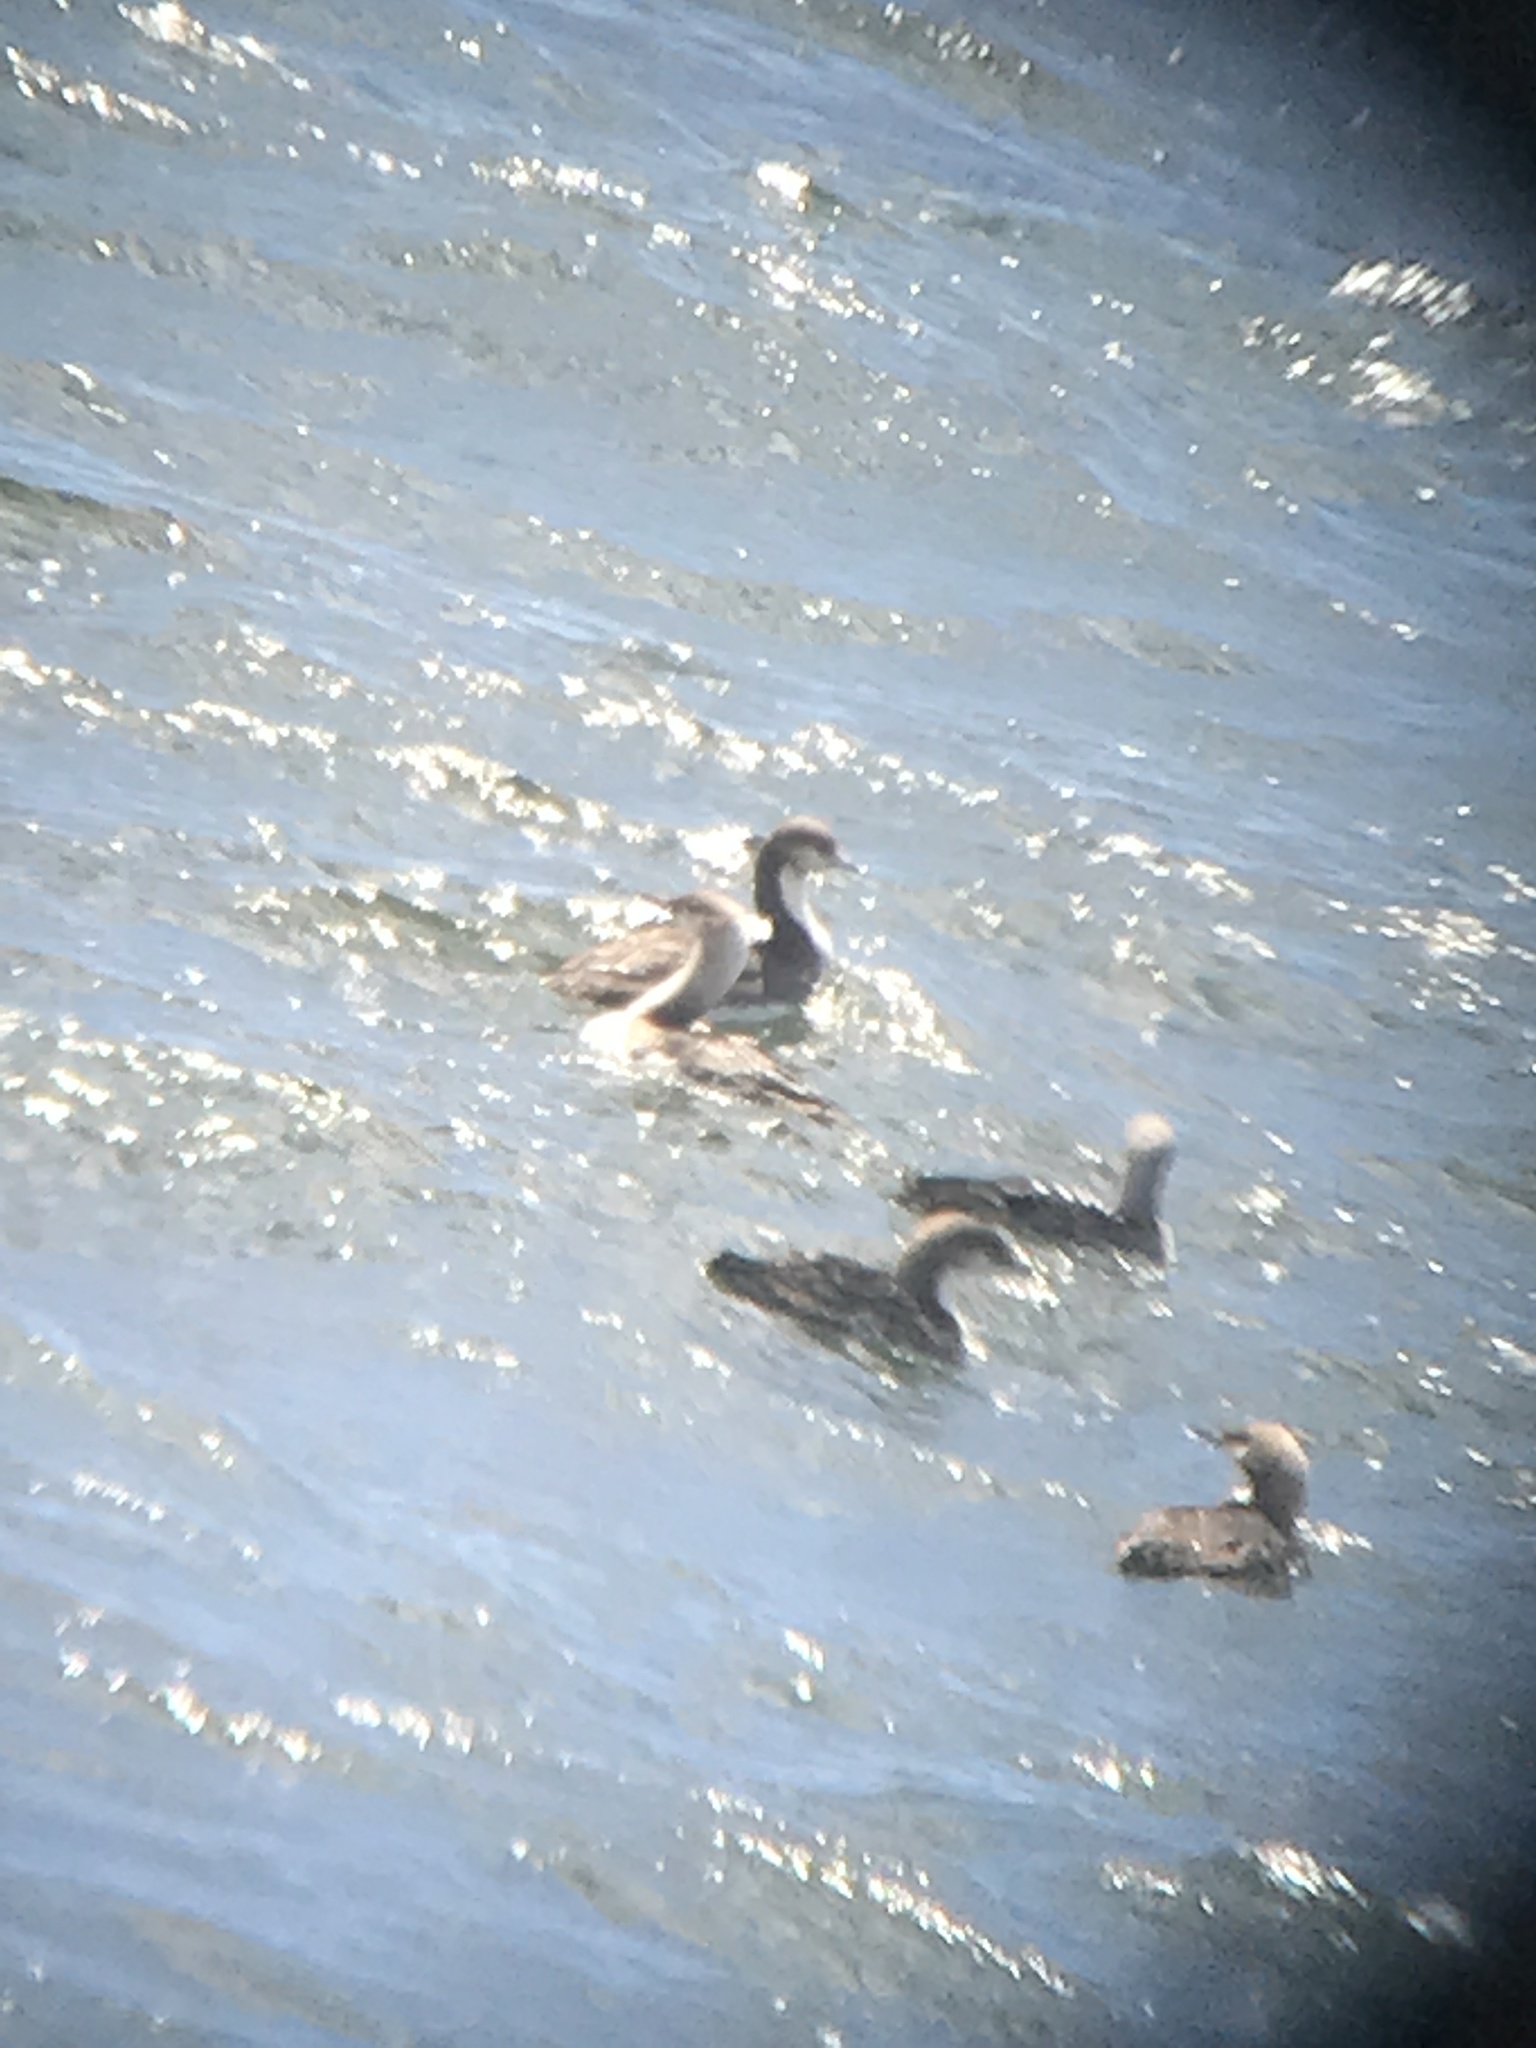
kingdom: Animalia
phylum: Chordata
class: Aves
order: Gaviiformes
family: Gaviidae
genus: Gavia
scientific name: Gavia pacifica
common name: Pacific loon
